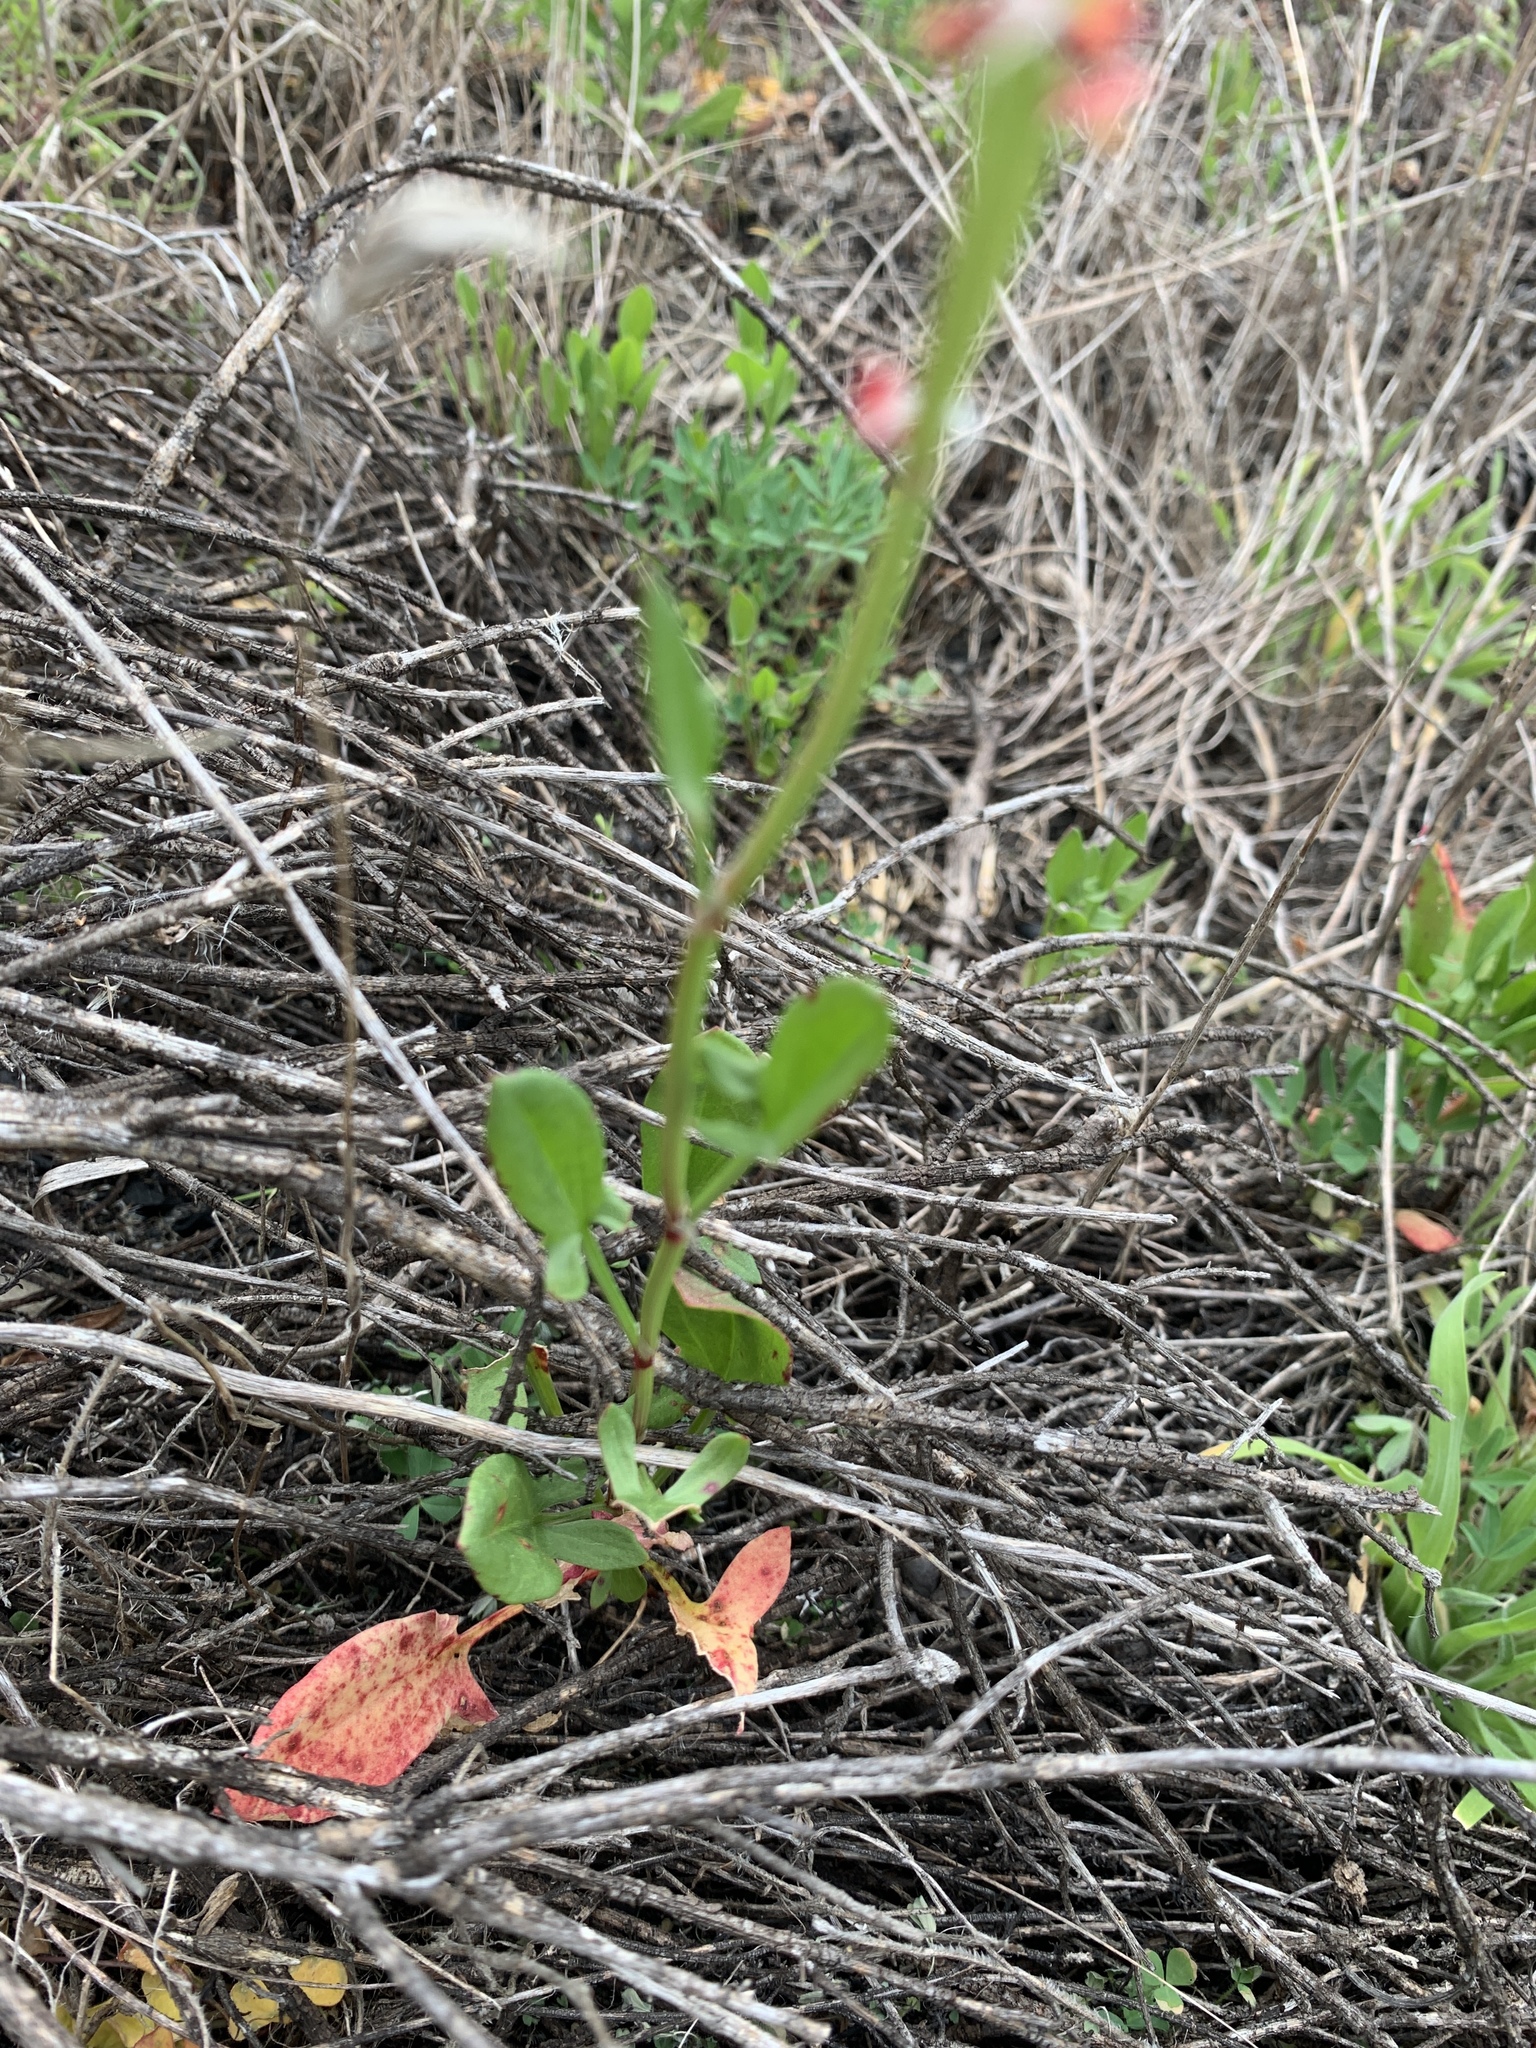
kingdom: Plantae
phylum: Tracheophyta
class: Magnoliopsida
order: Caryophyllales
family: Polygonaceae
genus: Rumex
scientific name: Rumex acetosella
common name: Common sheep sorrel
